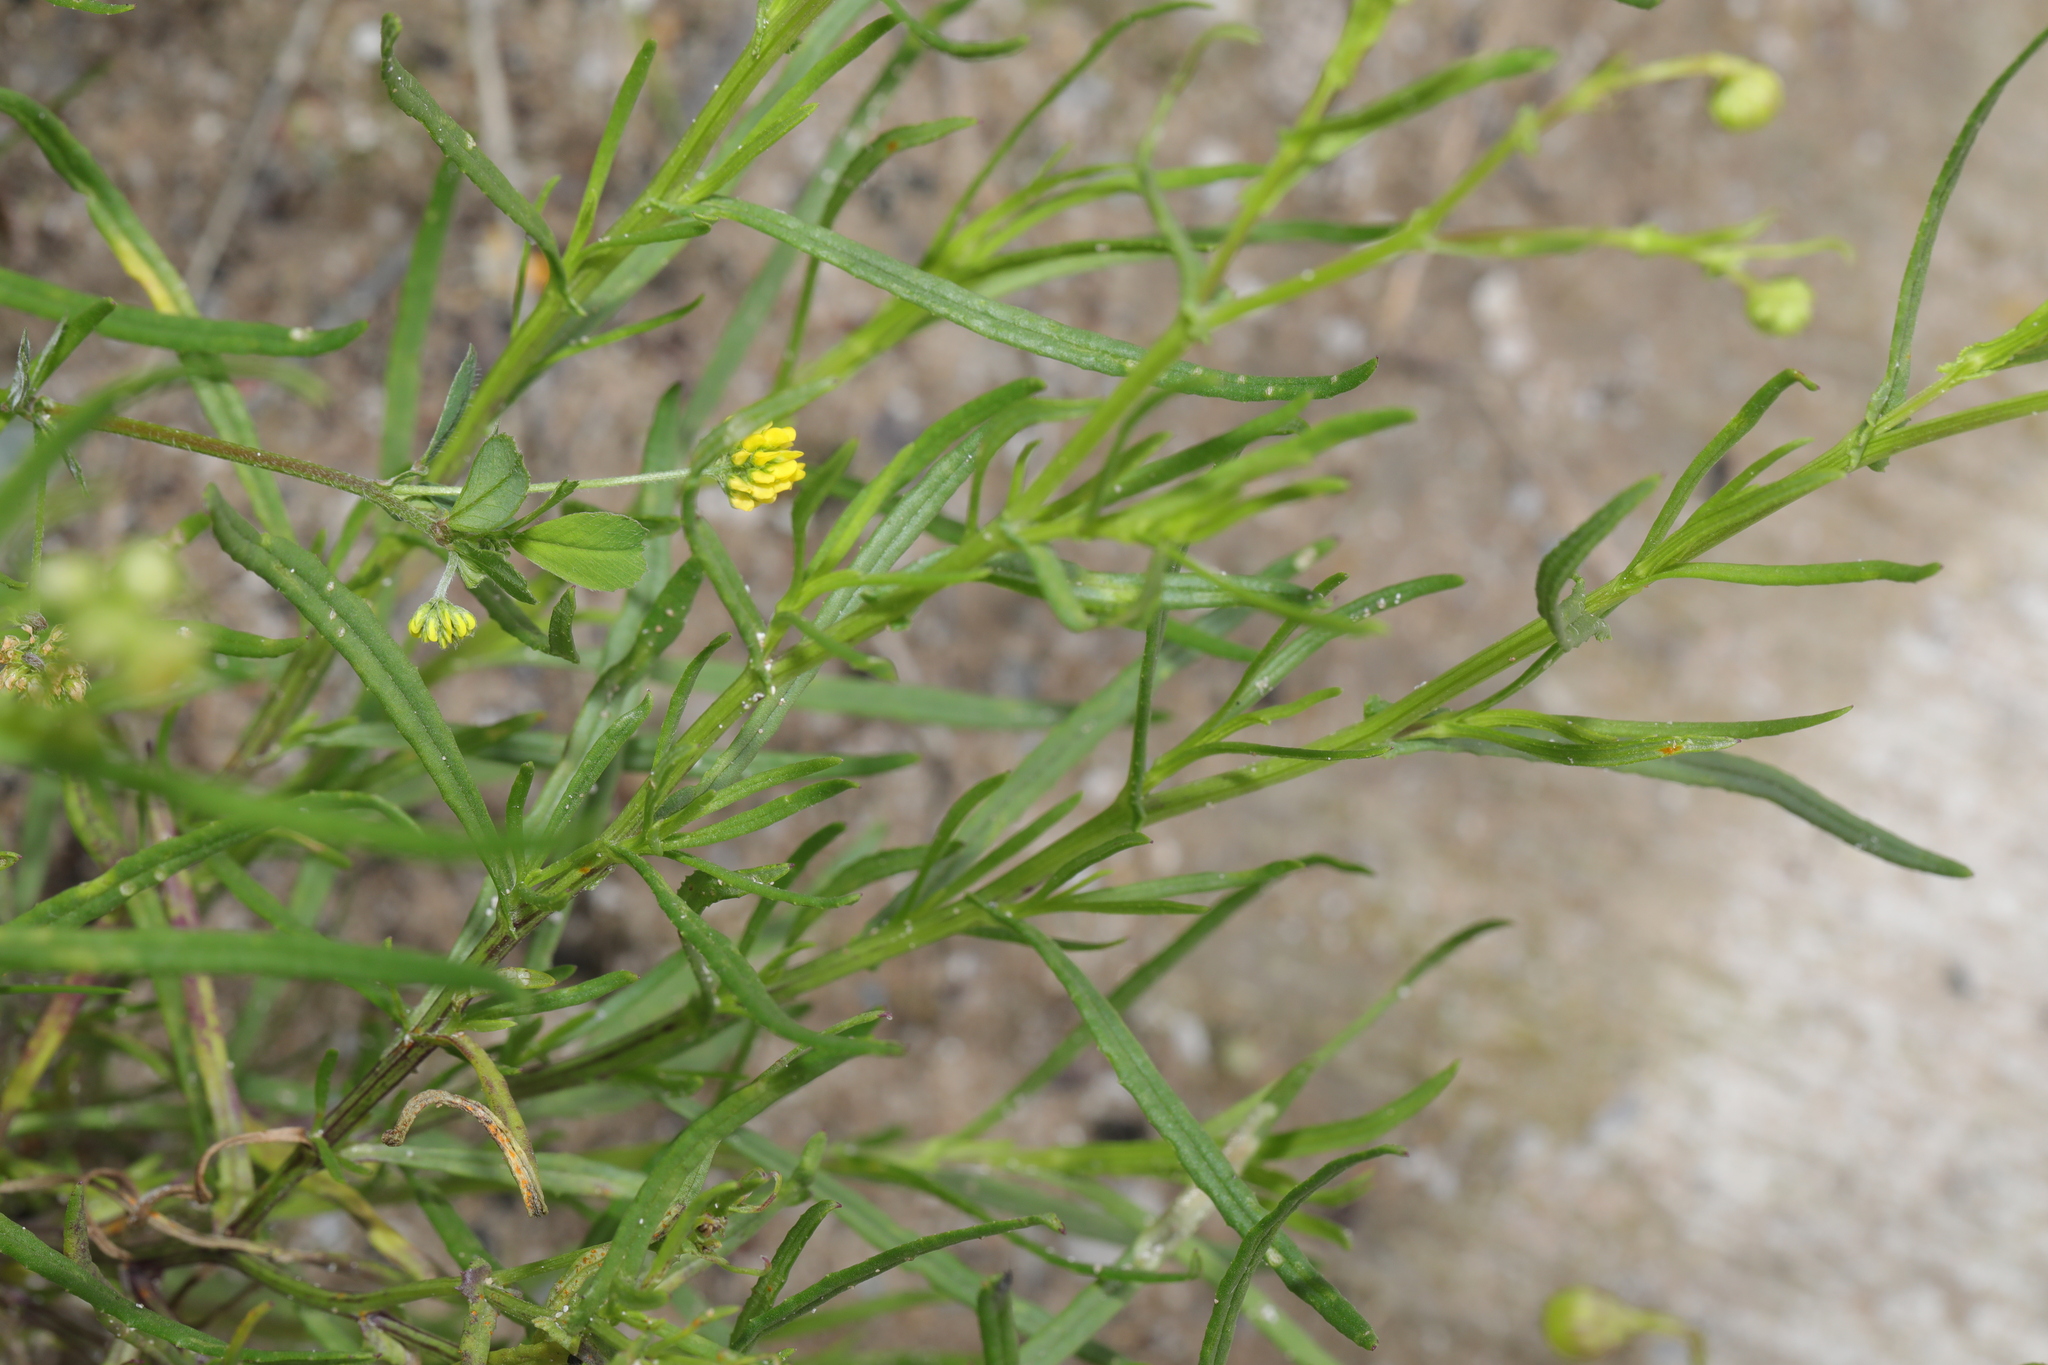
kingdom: Plantae
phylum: Tracheophyta
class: Magnoliopsida
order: Asterales
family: Asteraceae
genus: Senecio
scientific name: Senecio inaequidens
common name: Narrow-leaved ragwort
